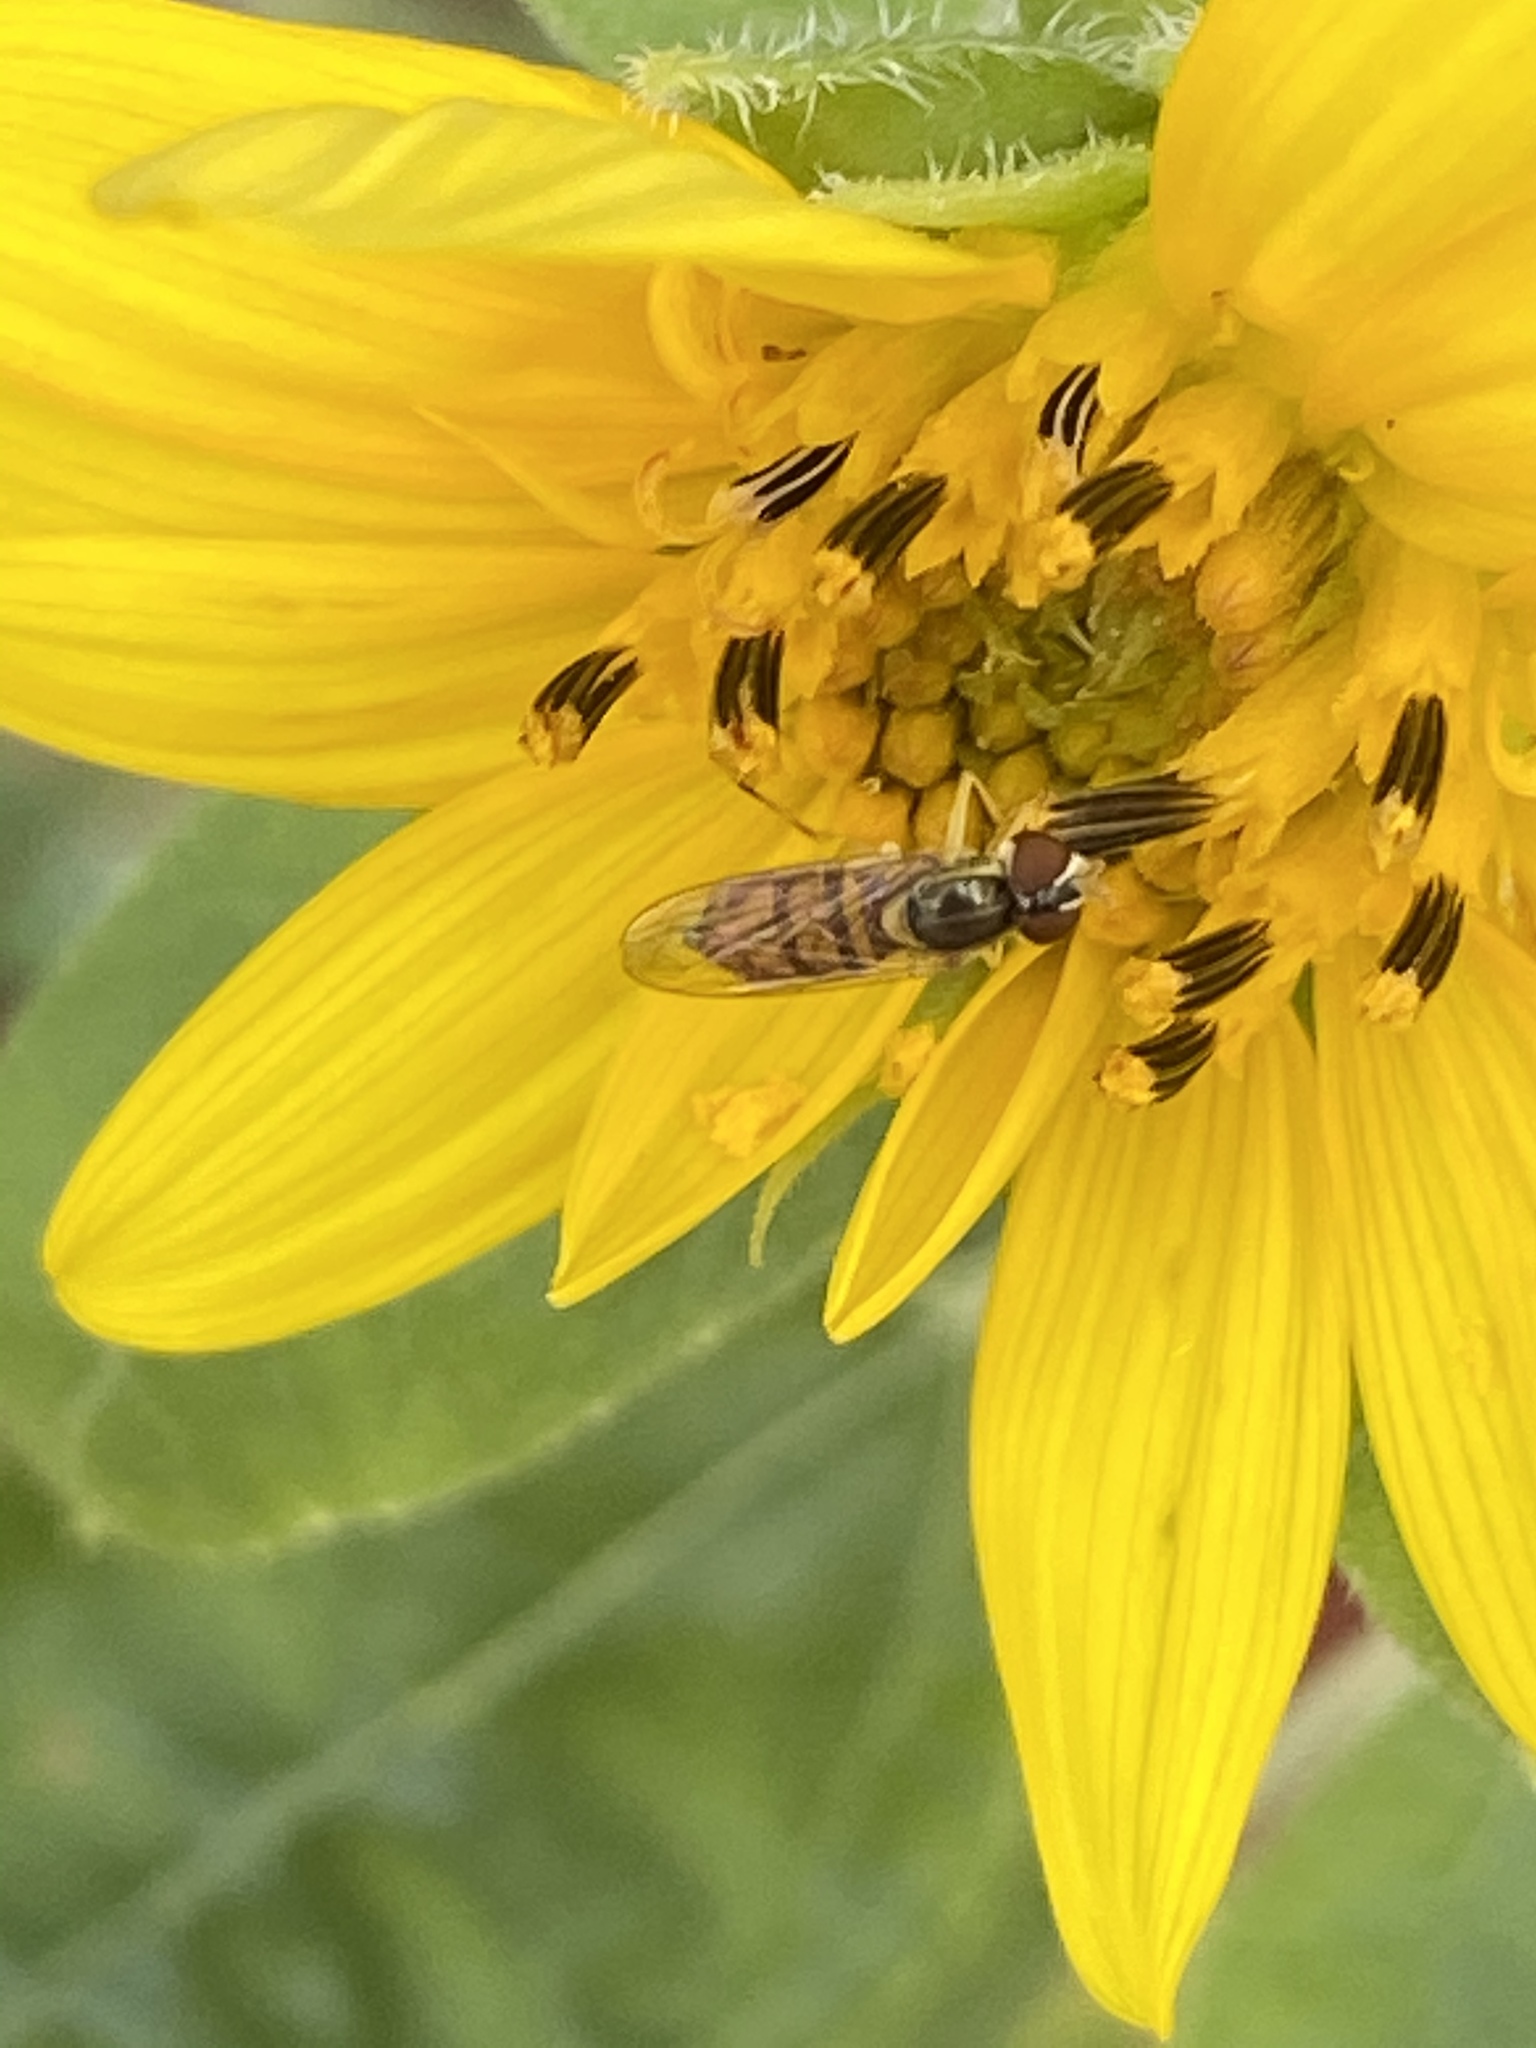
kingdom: Animalia
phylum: Arthropoda
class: Insecta
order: Diptera
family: Syrphidae
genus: Toxomerus
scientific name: Toxomerus marginatus
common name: Syrphid fly
